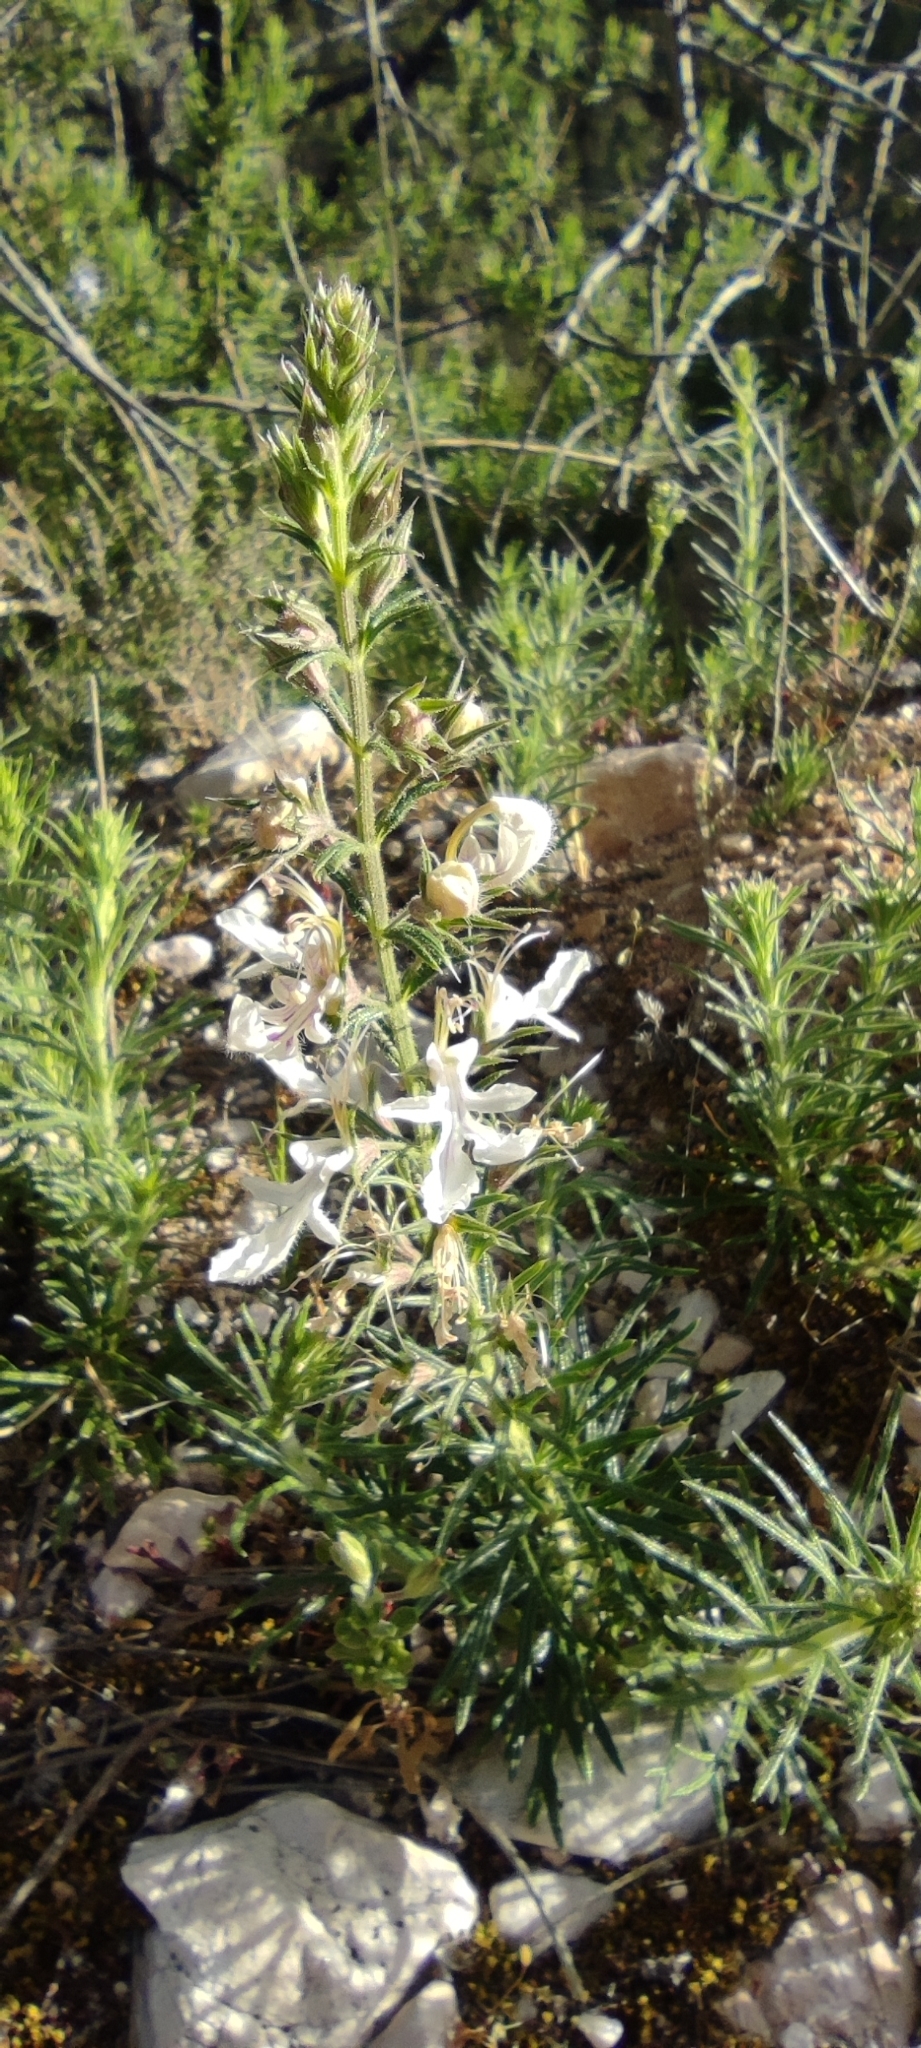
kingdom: Plantae
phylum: Tracheophyta
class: Magnoliopsida
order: Lamiales
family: Lamiaceae
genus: Teucrium
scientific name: Teucrium pseudochamaepitys
